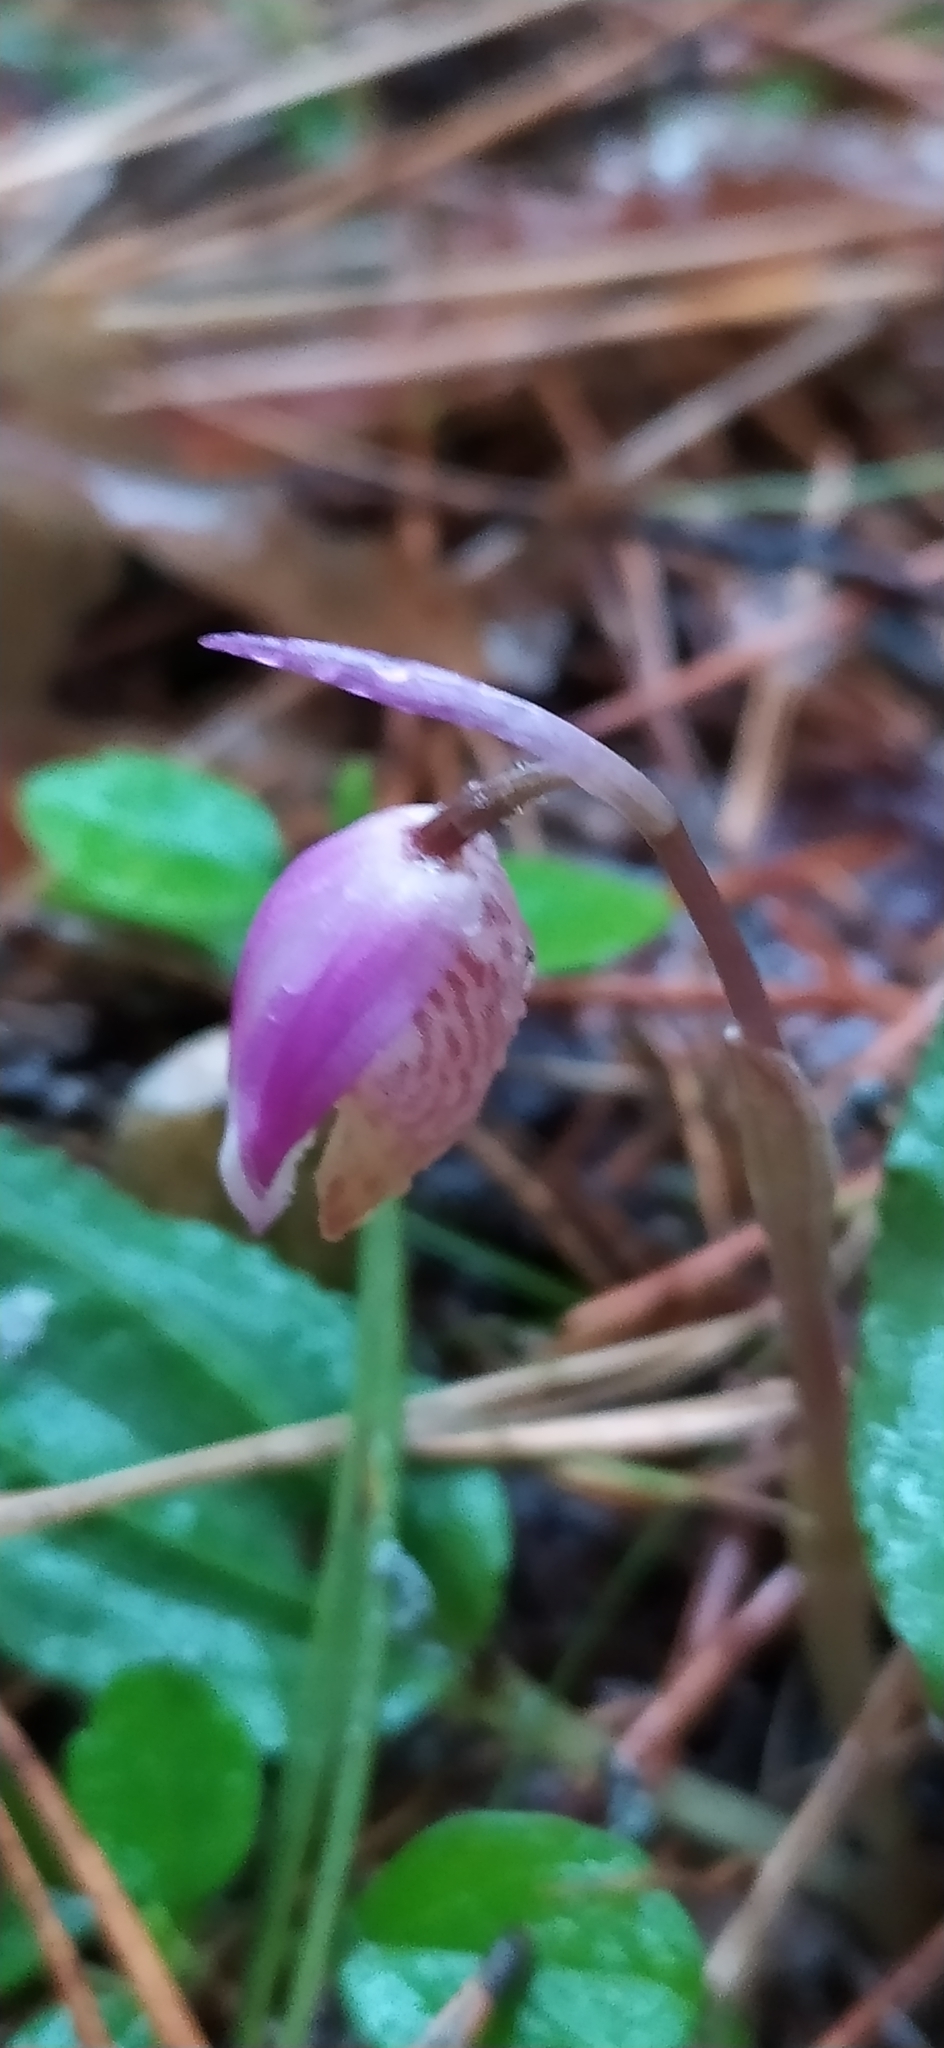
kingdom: Plantae
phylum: Tracheophyta
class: Liliopsida
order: Asparagales
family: Orchidaceae
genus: Calypso
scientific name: Calypso bulbosa
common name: Calypso
